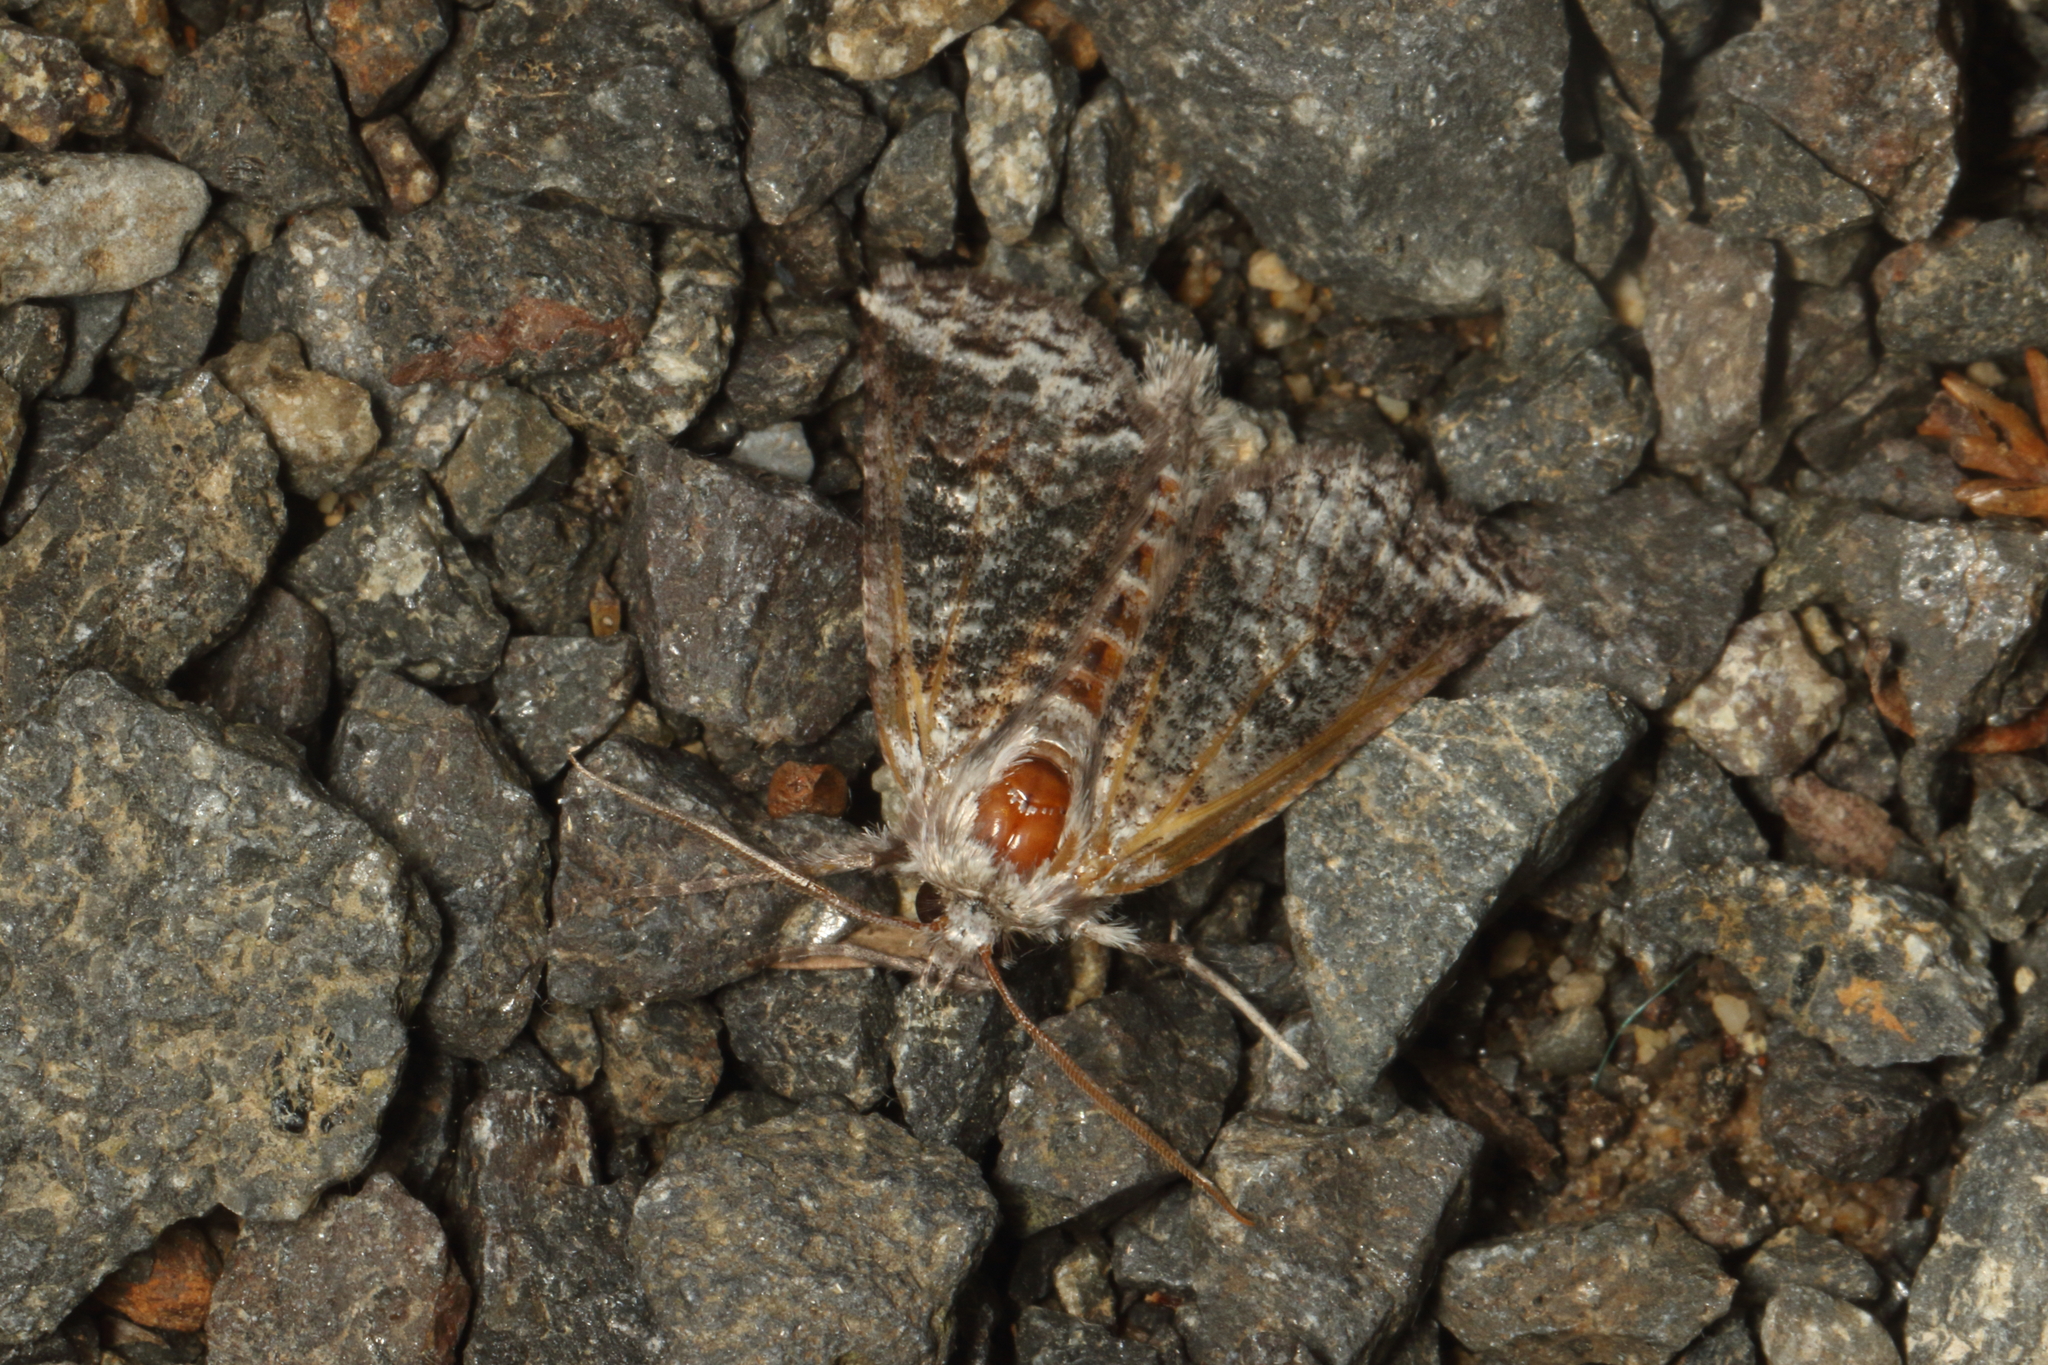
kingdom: Animalia
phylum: Arthropoda
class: Insecta
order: Lepidoptera
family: Geometridae
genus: Declana
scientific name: Declana
